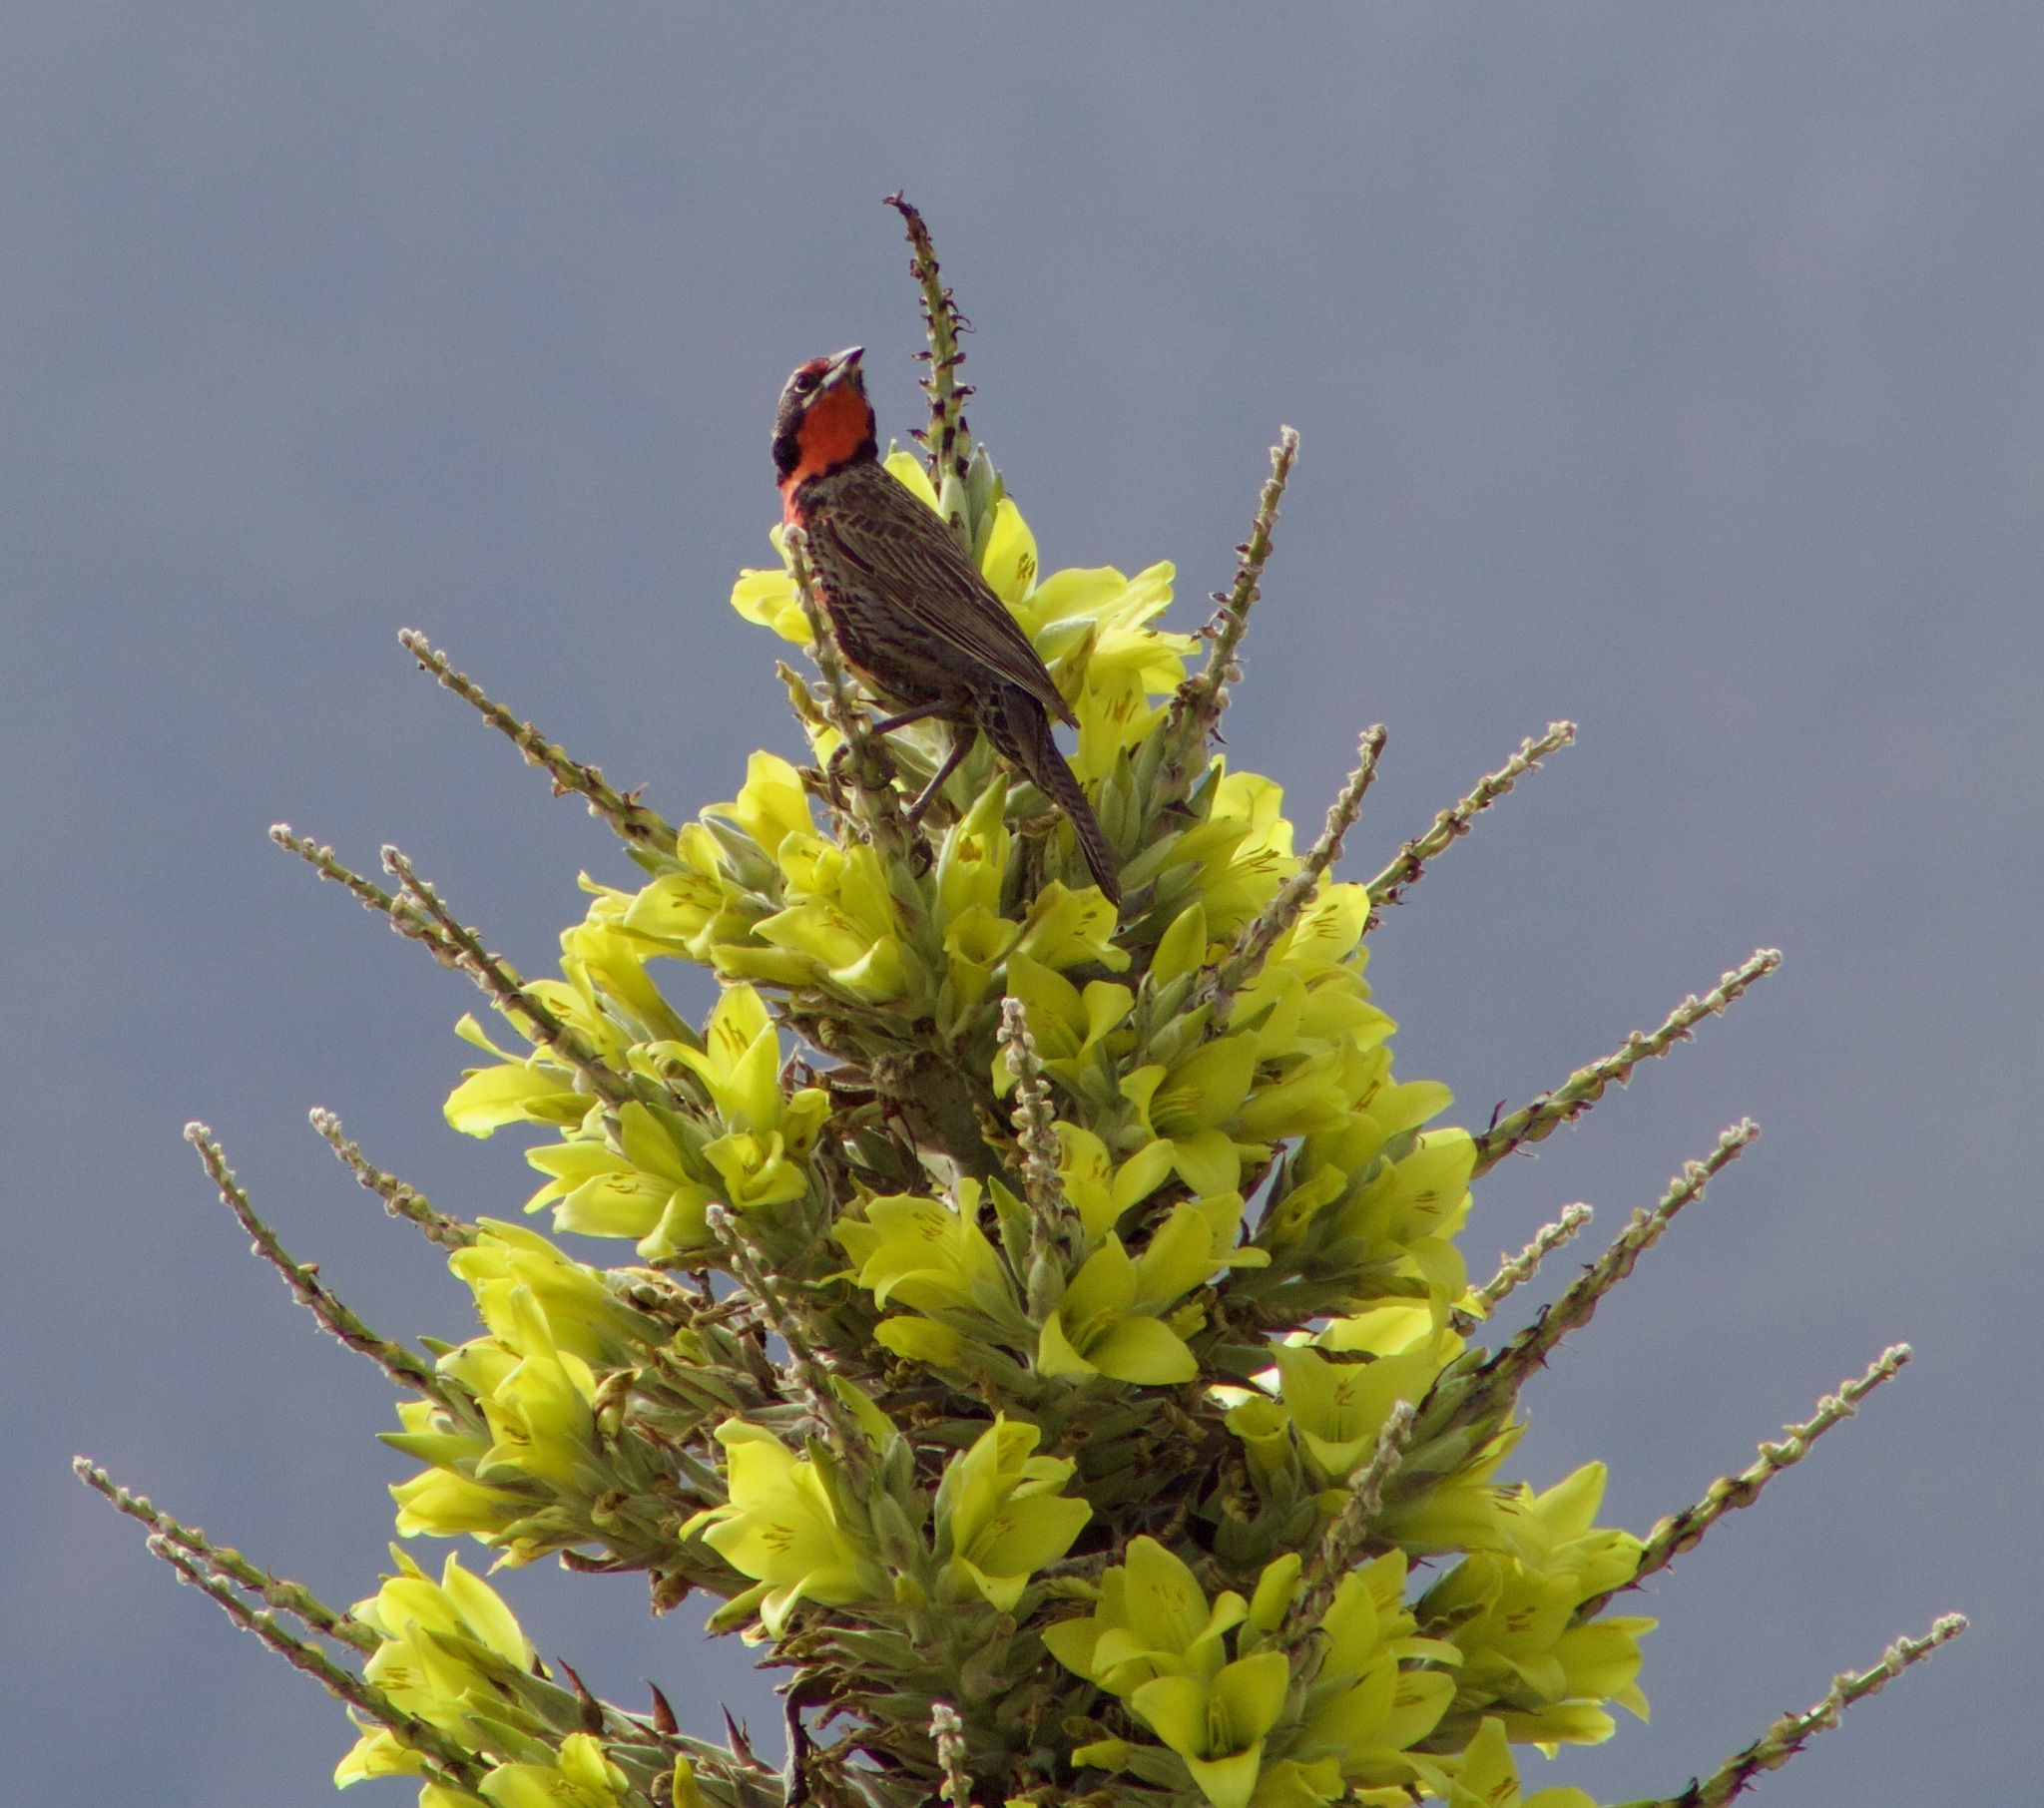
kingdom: Animalia
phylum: Chordata
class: Aves
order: Passeriformes
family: Icteridae
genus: Sturnella
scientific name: Sturnella loyca
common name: Long-tailed meadowlark
